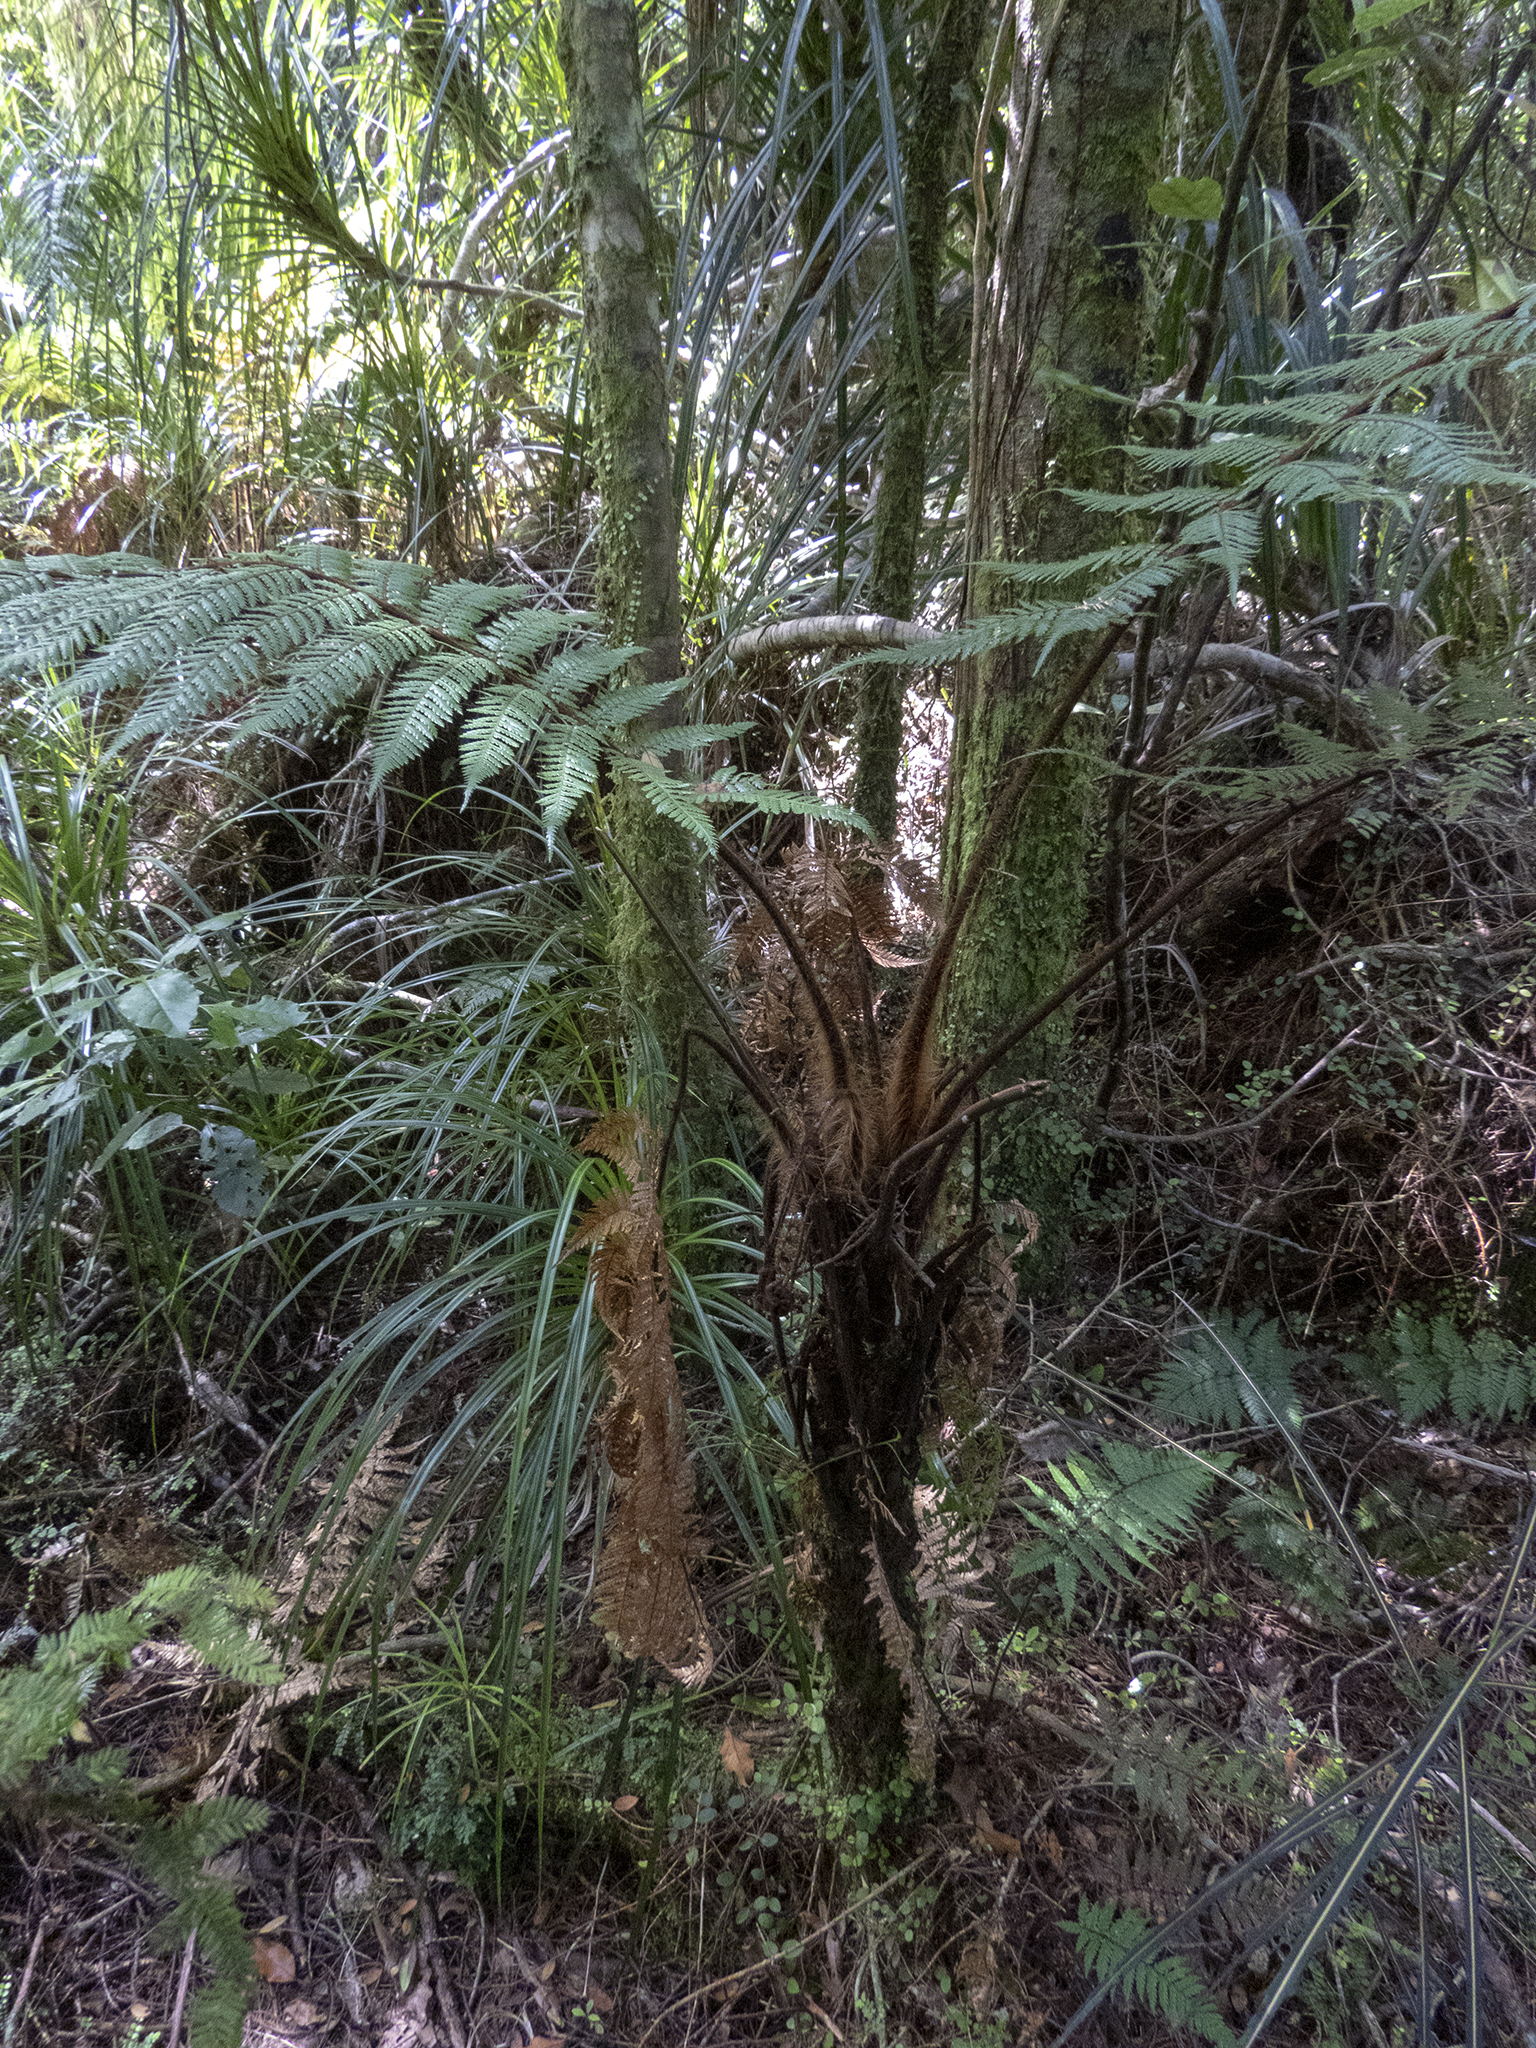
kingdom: Plantae
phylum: Tracheophyta
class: Polypodiopsida
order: Cyatheales
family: Dicksoniaceae
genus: Dicksonia
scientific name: Dicksonia squarrosa
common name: Hard treefern
